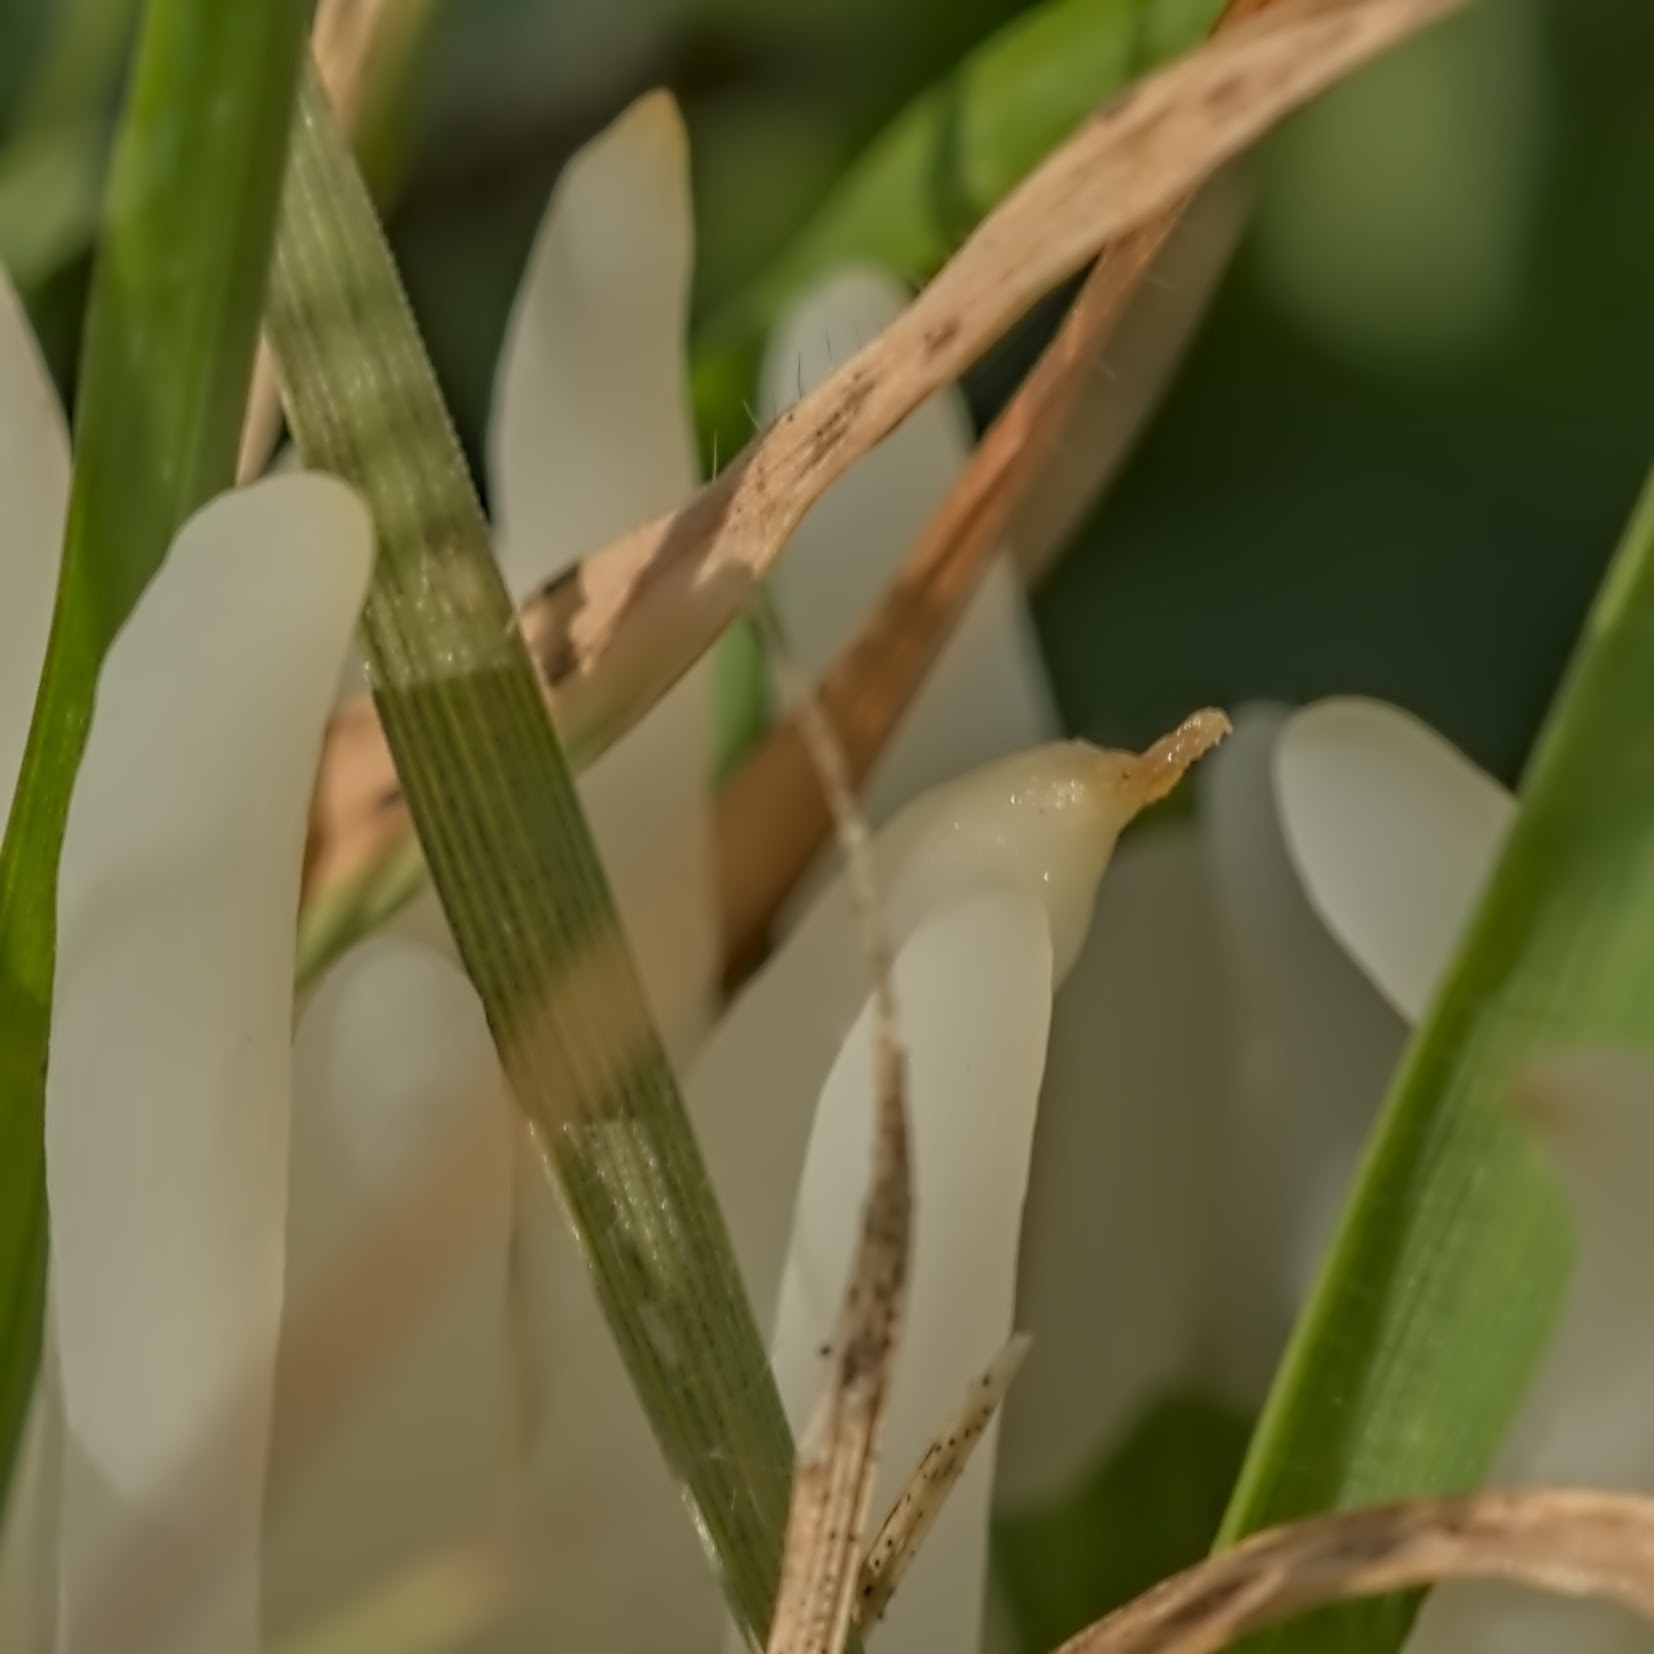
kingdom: Fungi
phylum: Basidiomycota
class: Agaricomycetes
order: Agaricales
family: Clavariaceae
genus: Clavaria
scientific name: Clavaria fragilis
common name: White spindles
